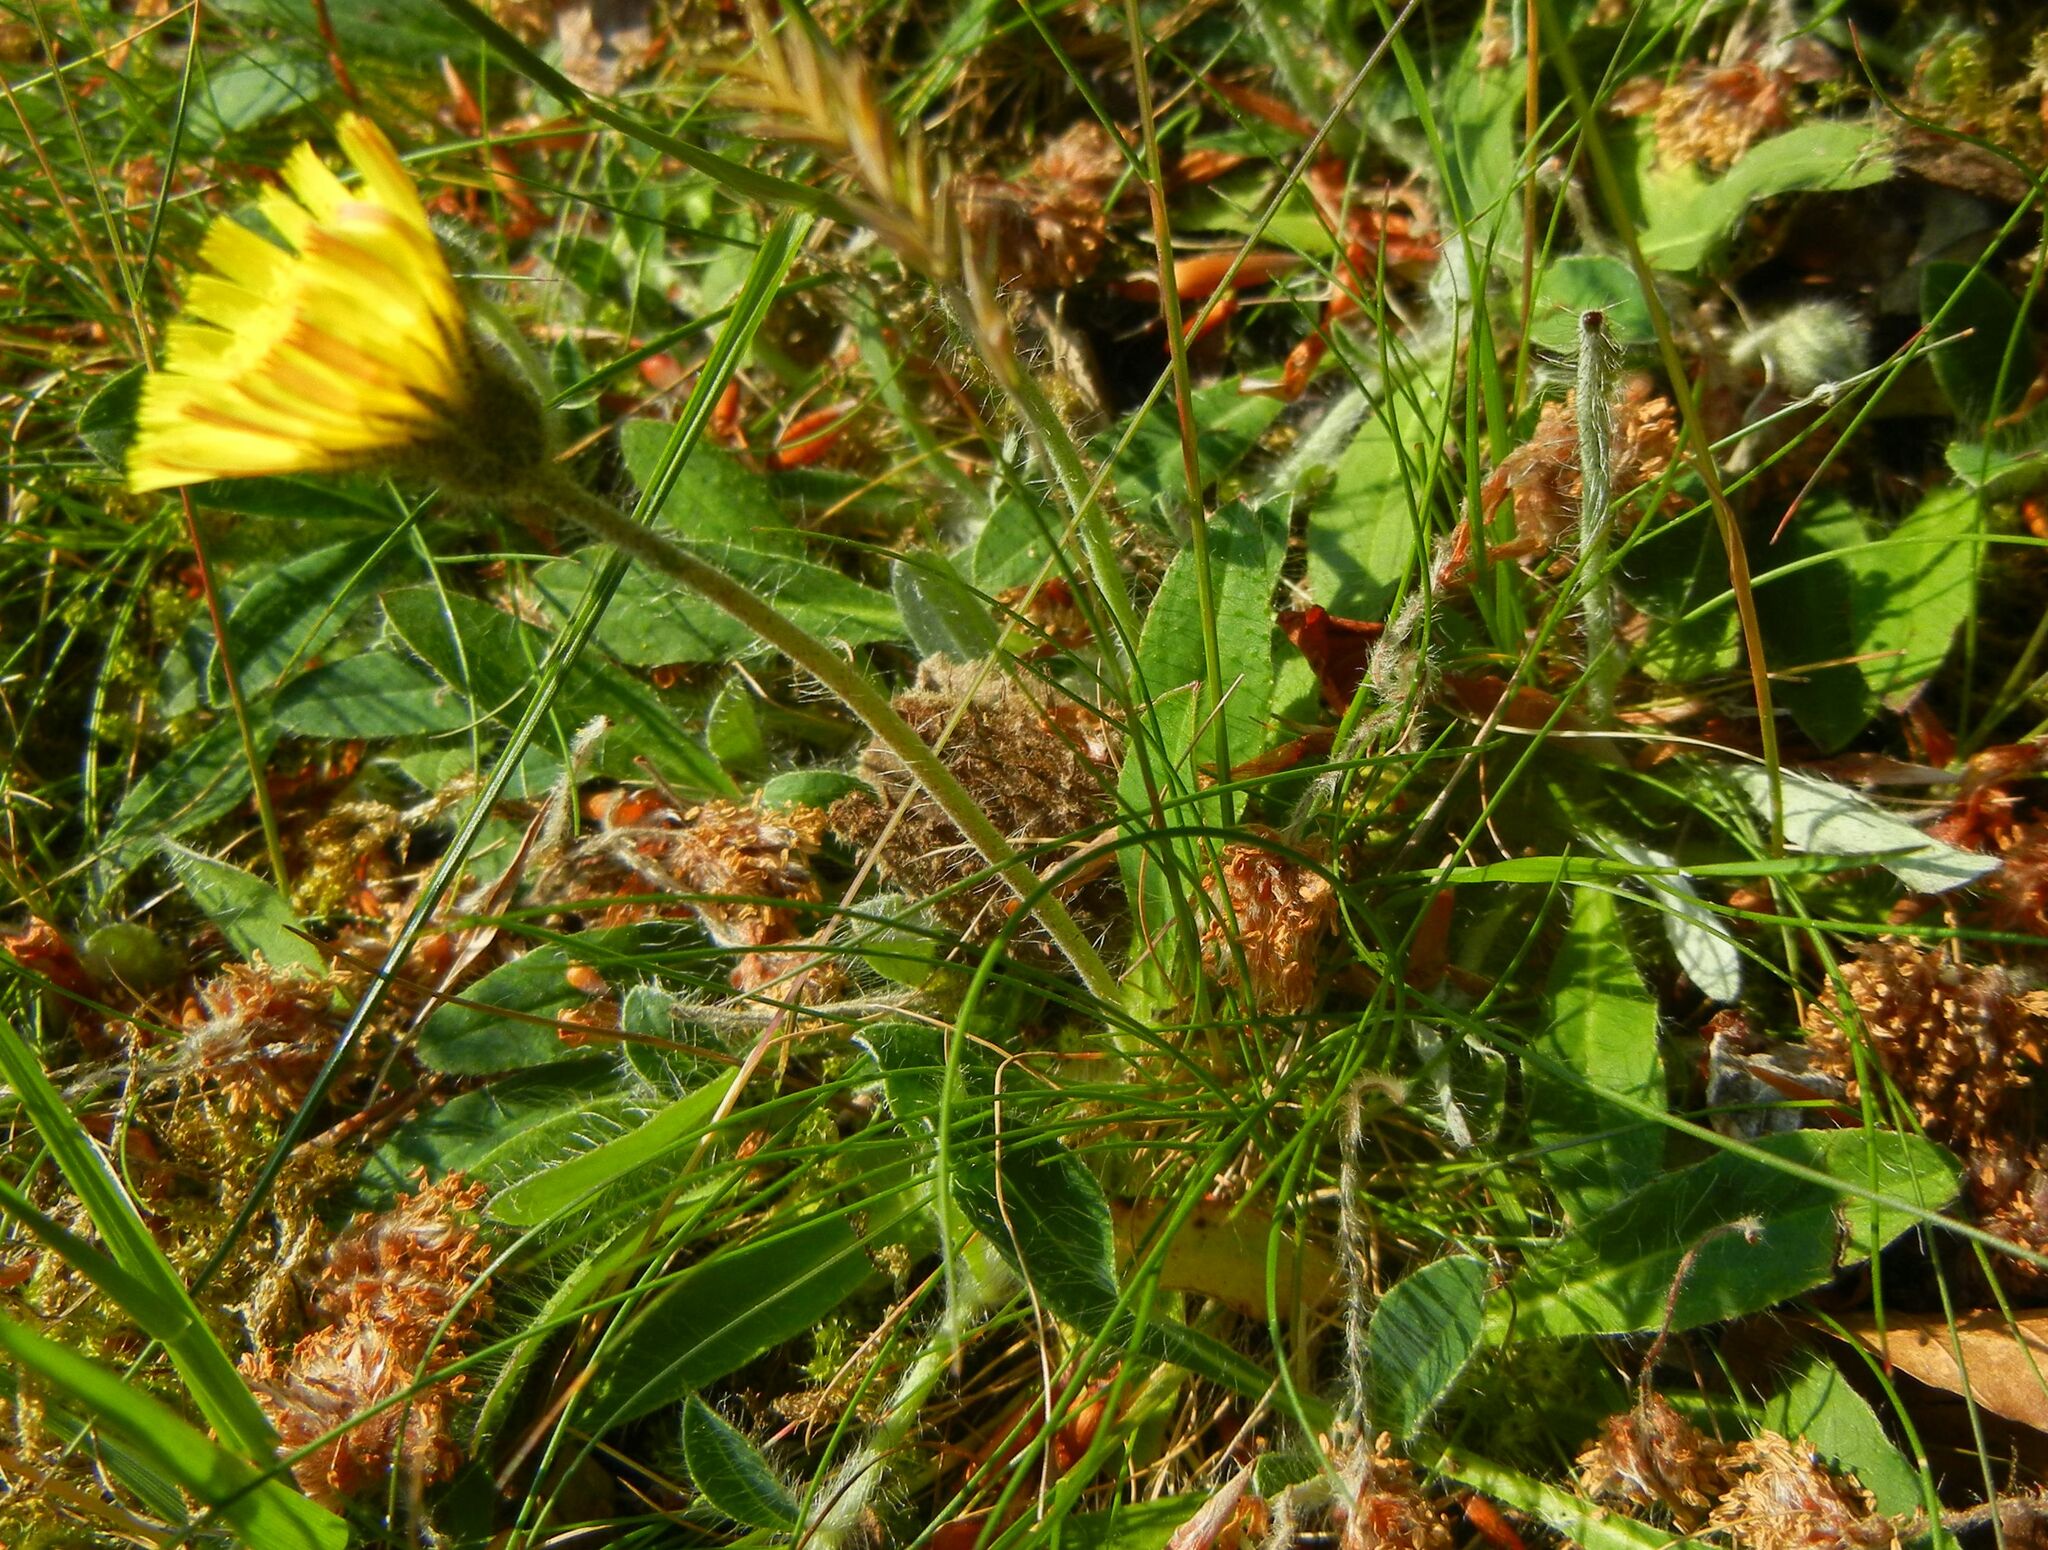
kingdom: Plantae
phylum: Tracheophyta
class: Magnoliopsida
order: Asterales
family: Asteraceae
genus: Pilosella
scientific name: Pilosella officinarum
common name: Mouse-ear hawkweed
